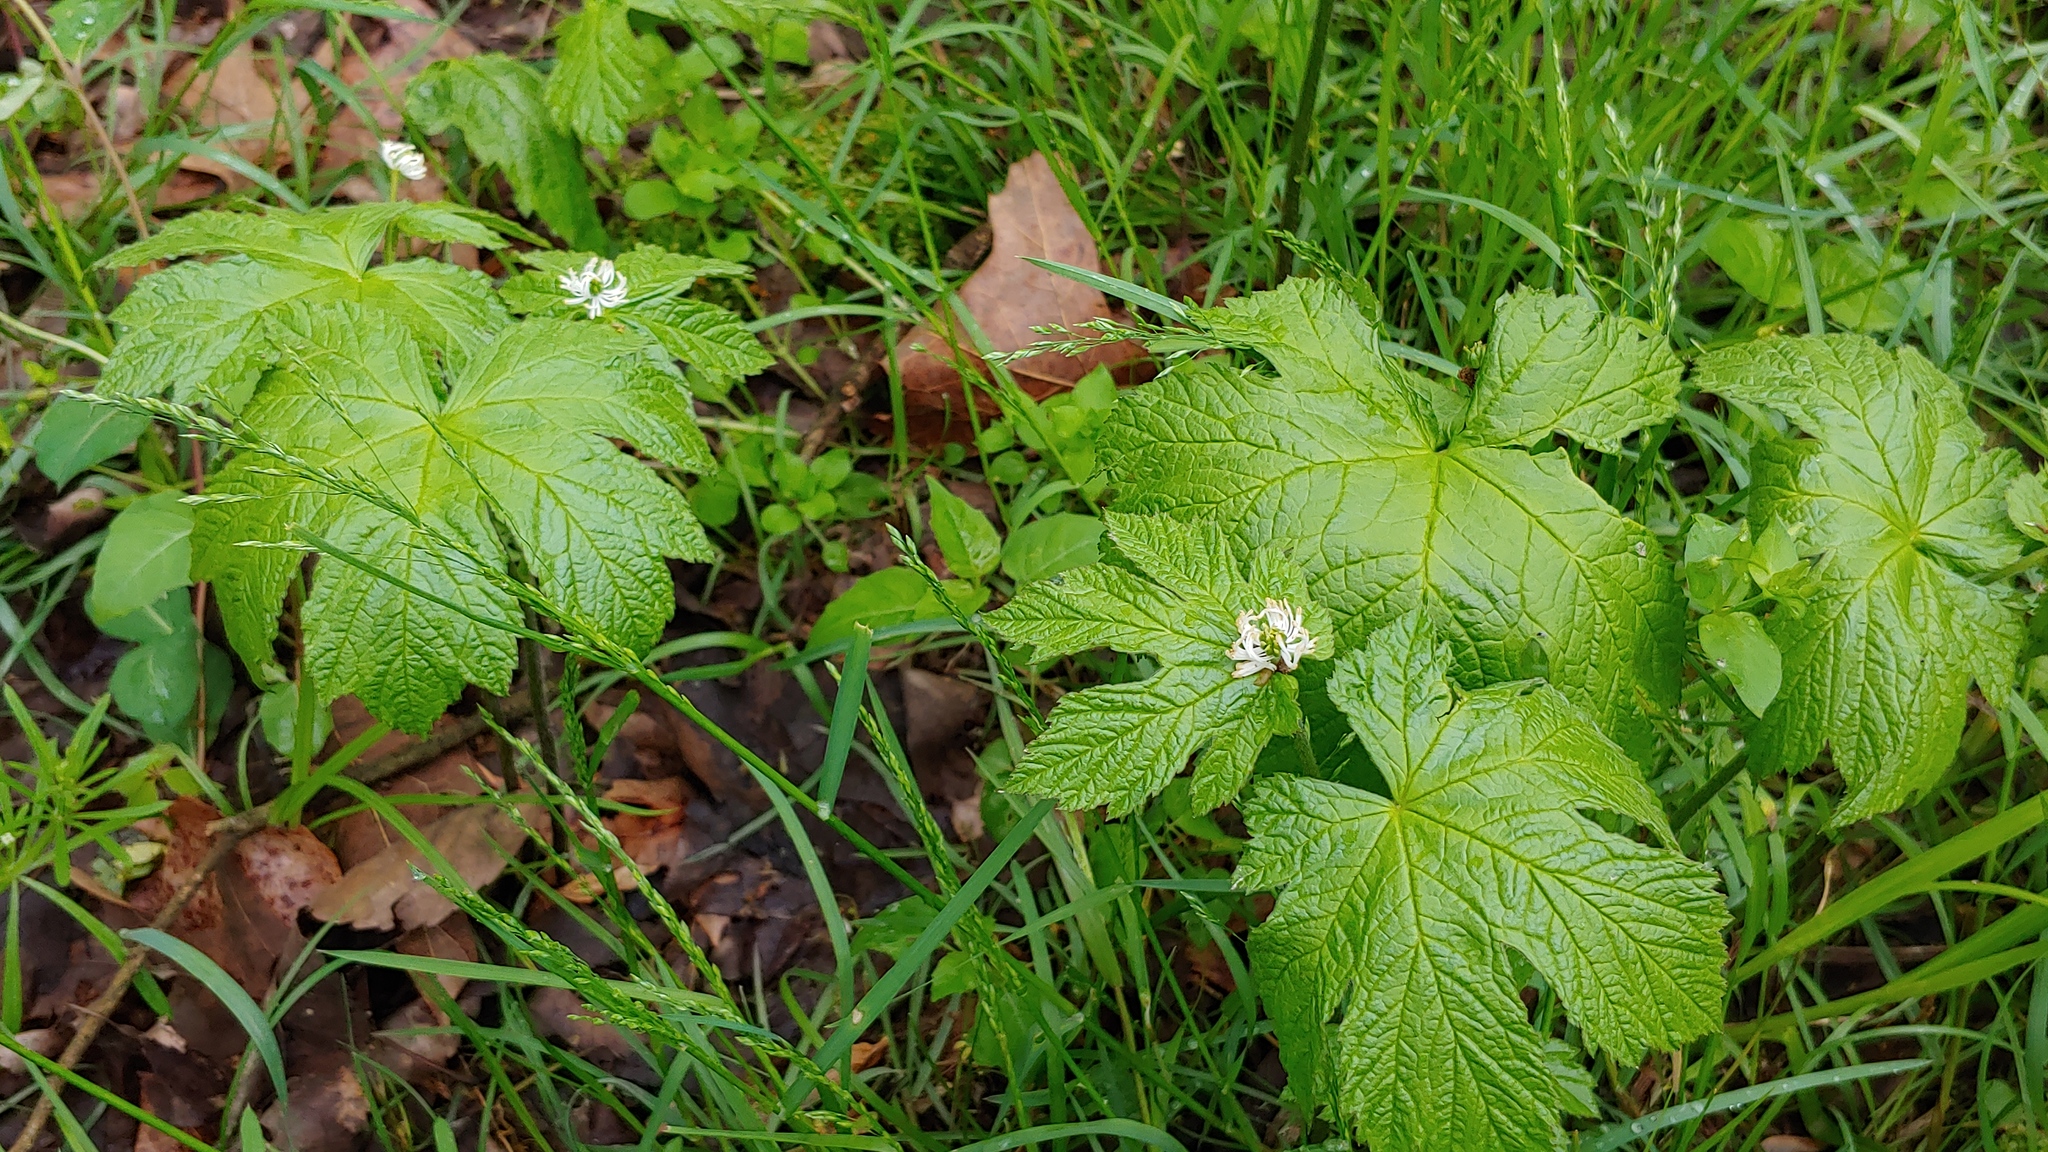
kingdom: Plantae
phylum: Tracheophyta
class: Magnoliopsida
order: Ranunculales
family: Ranunculaceae
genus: Hydrastis
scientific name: Hydrastis canadensis
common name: Goldenseal
